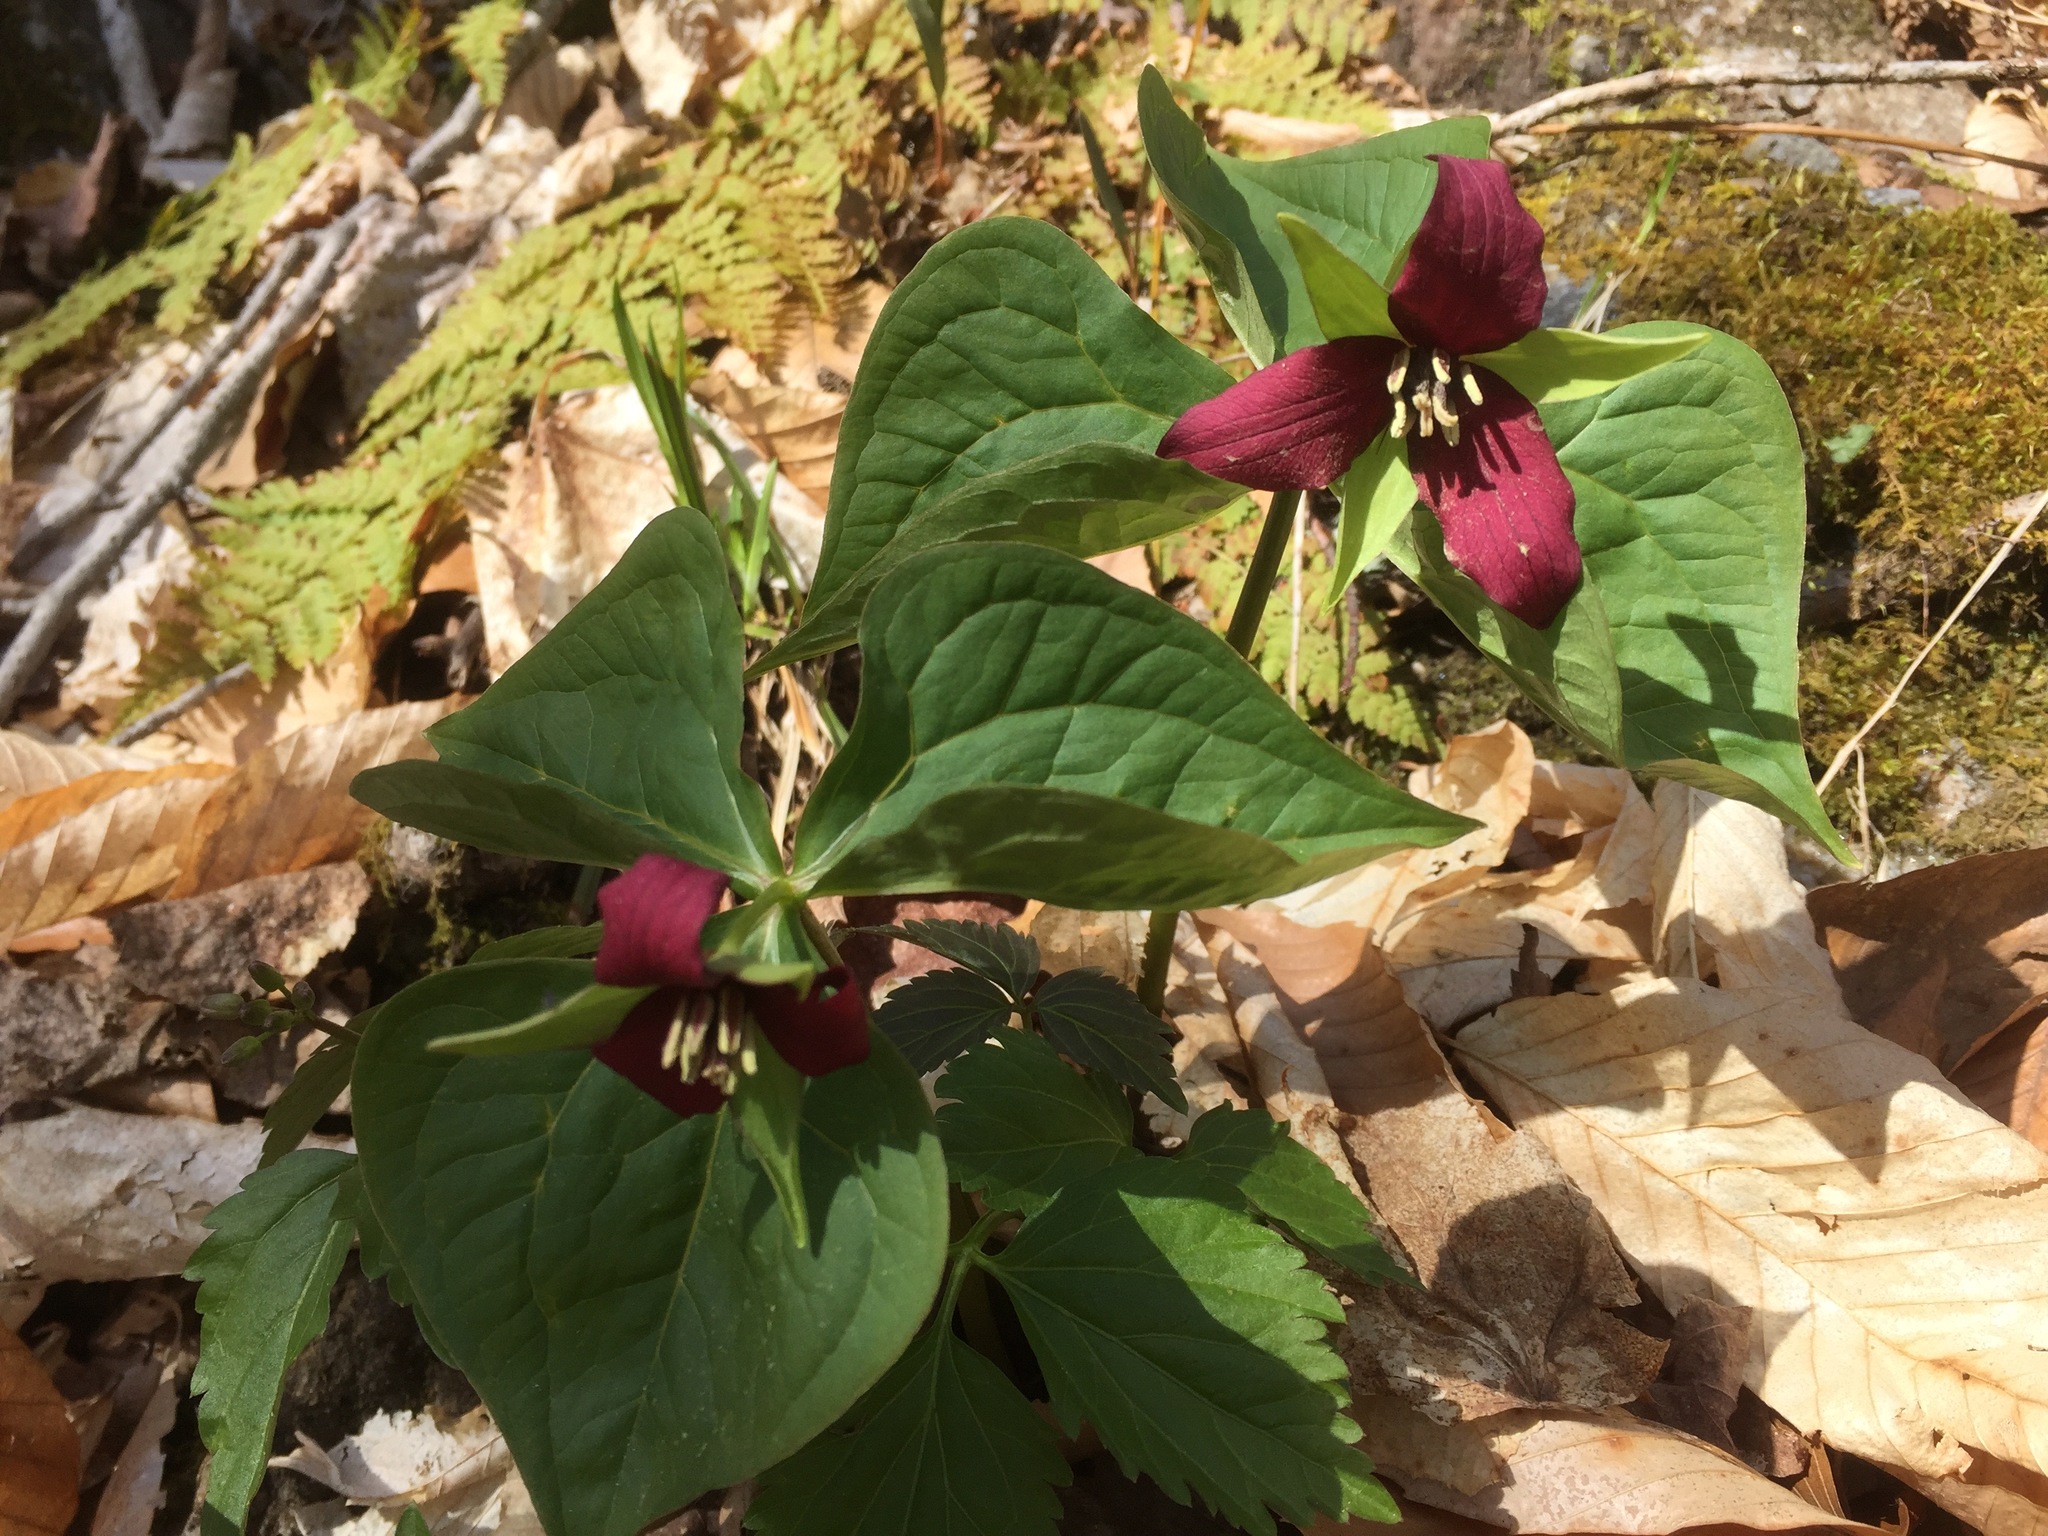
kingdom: Plantae
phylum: Tracheophyta
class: Liliopsida
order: Liliales
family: Melanthiaceae
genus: Trillium
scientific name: Trillium erectum
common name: Purple trillium
